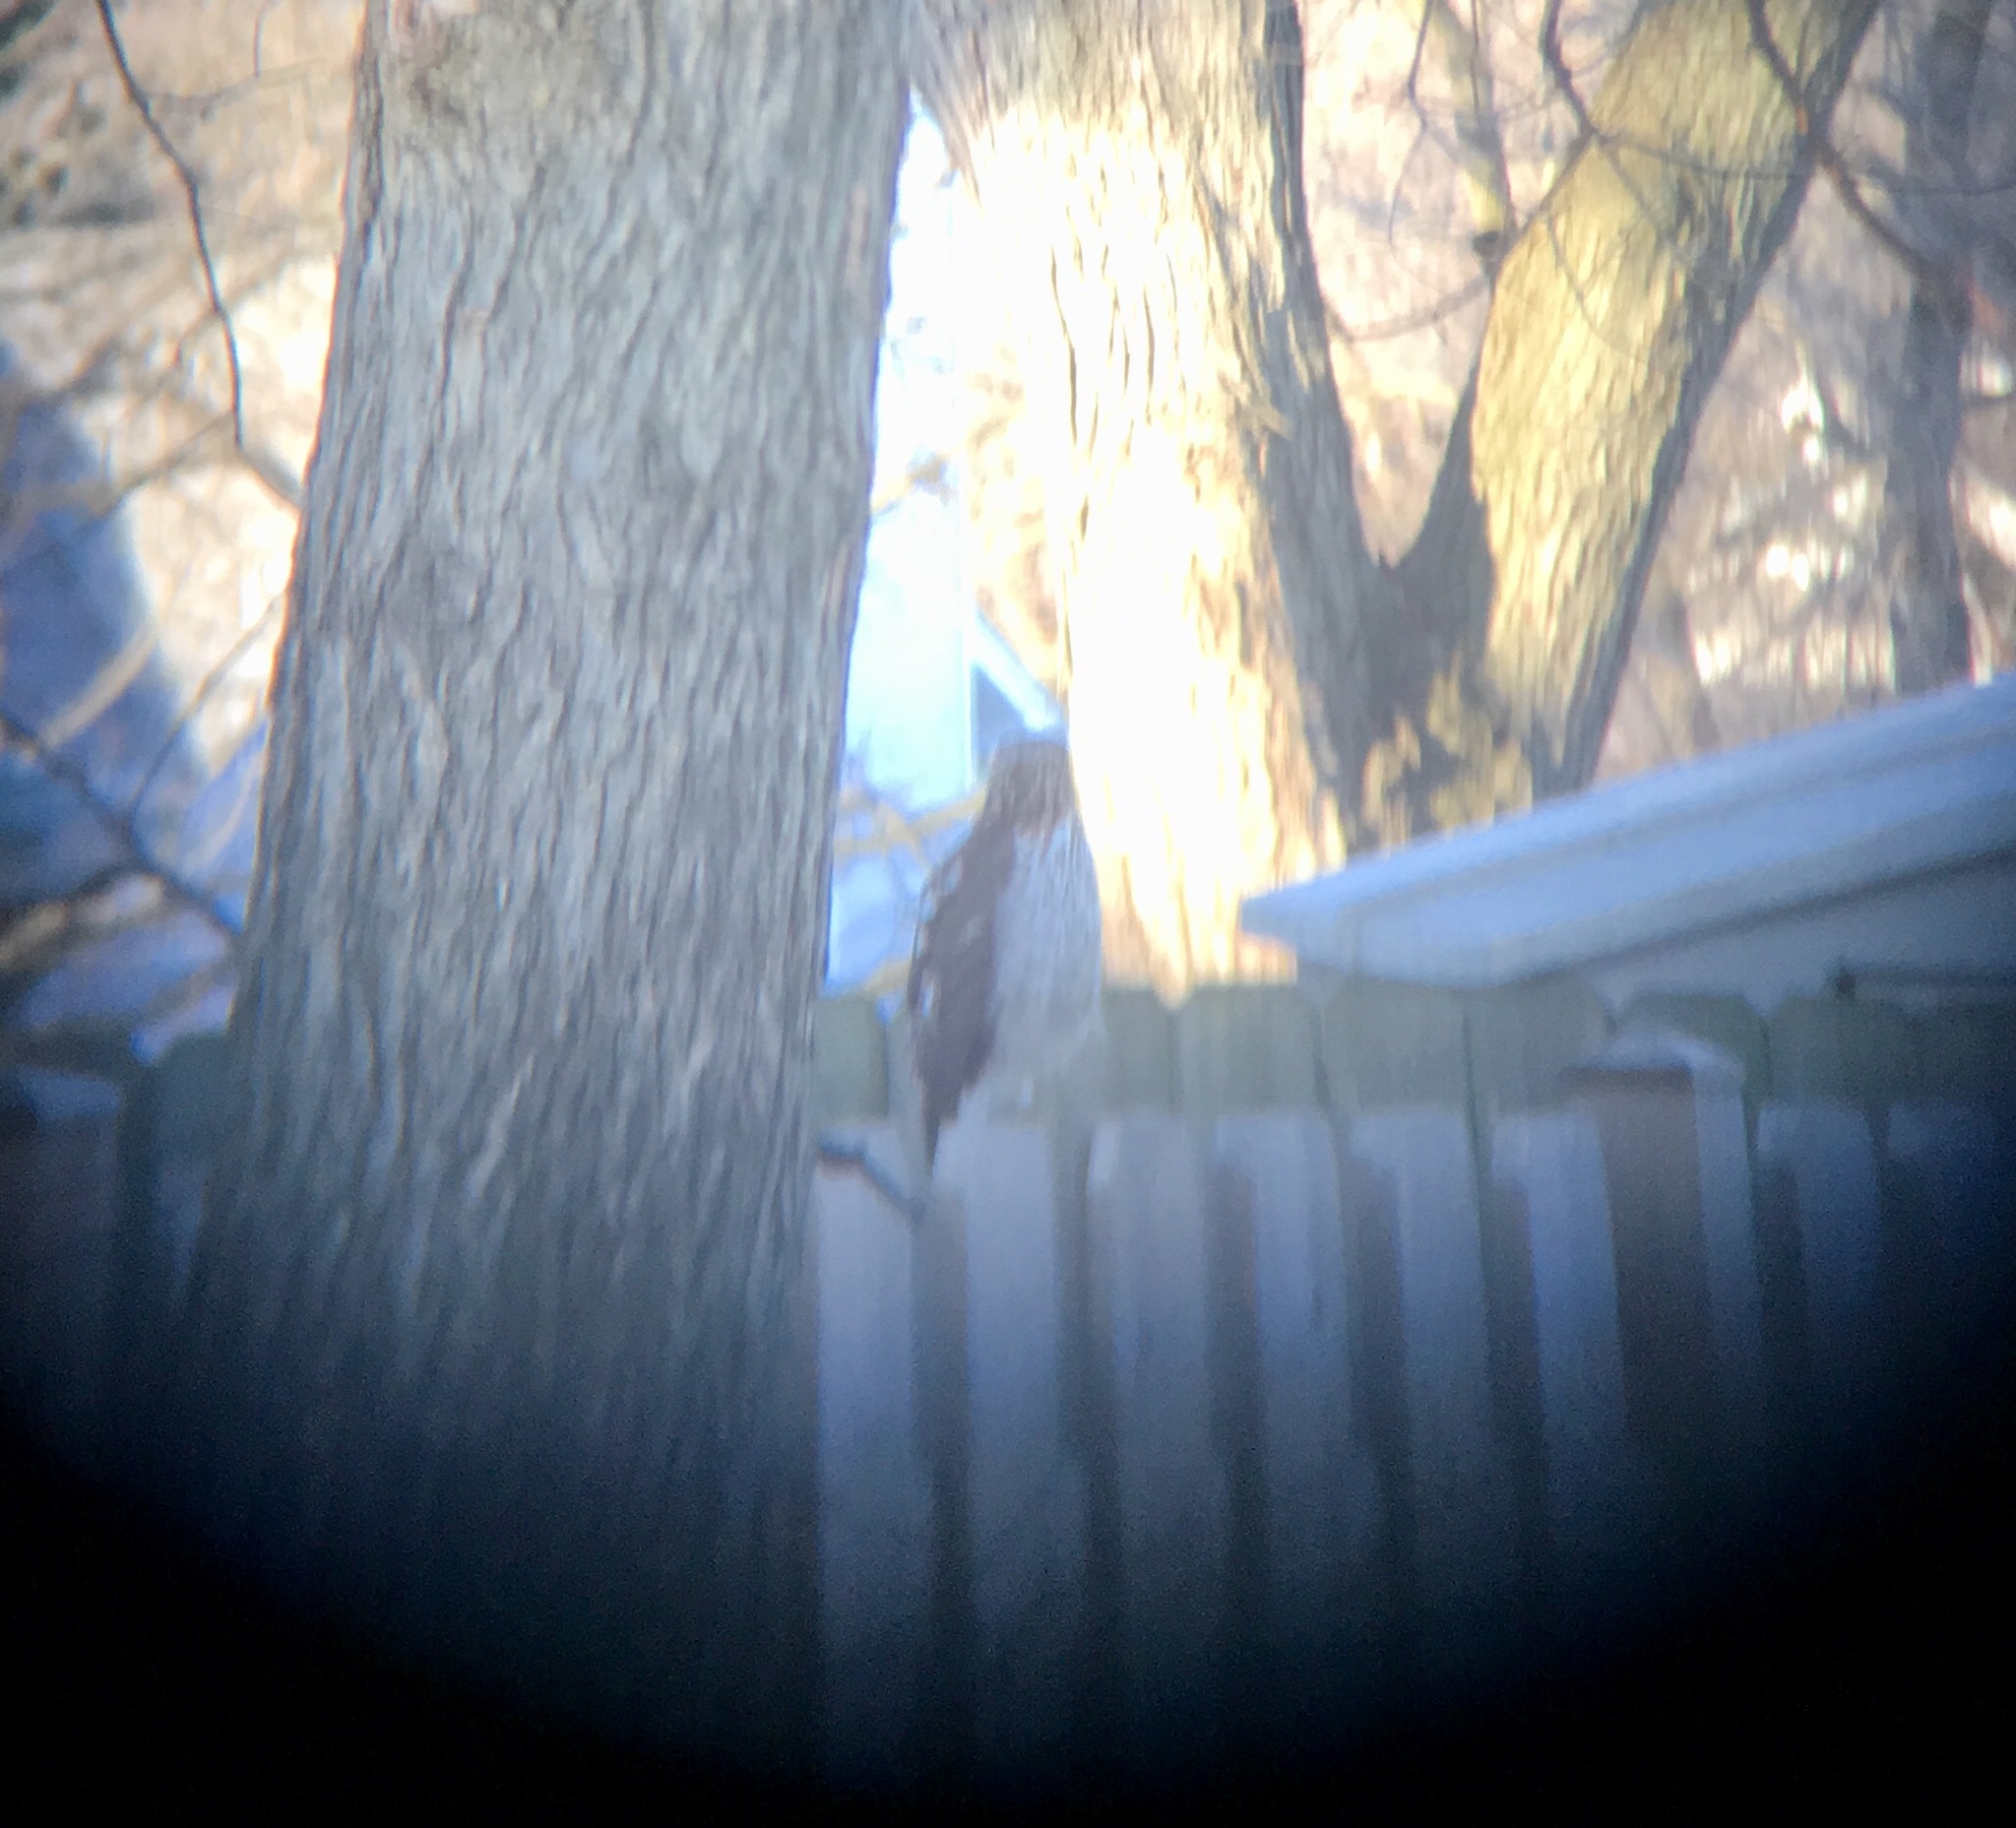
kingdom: Animalia
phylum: Chordata
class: Aves
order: Accipitriformes
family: Accipitridae
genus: Accipiter
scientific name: Accipiter cooperii
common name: Cooper's hawk
